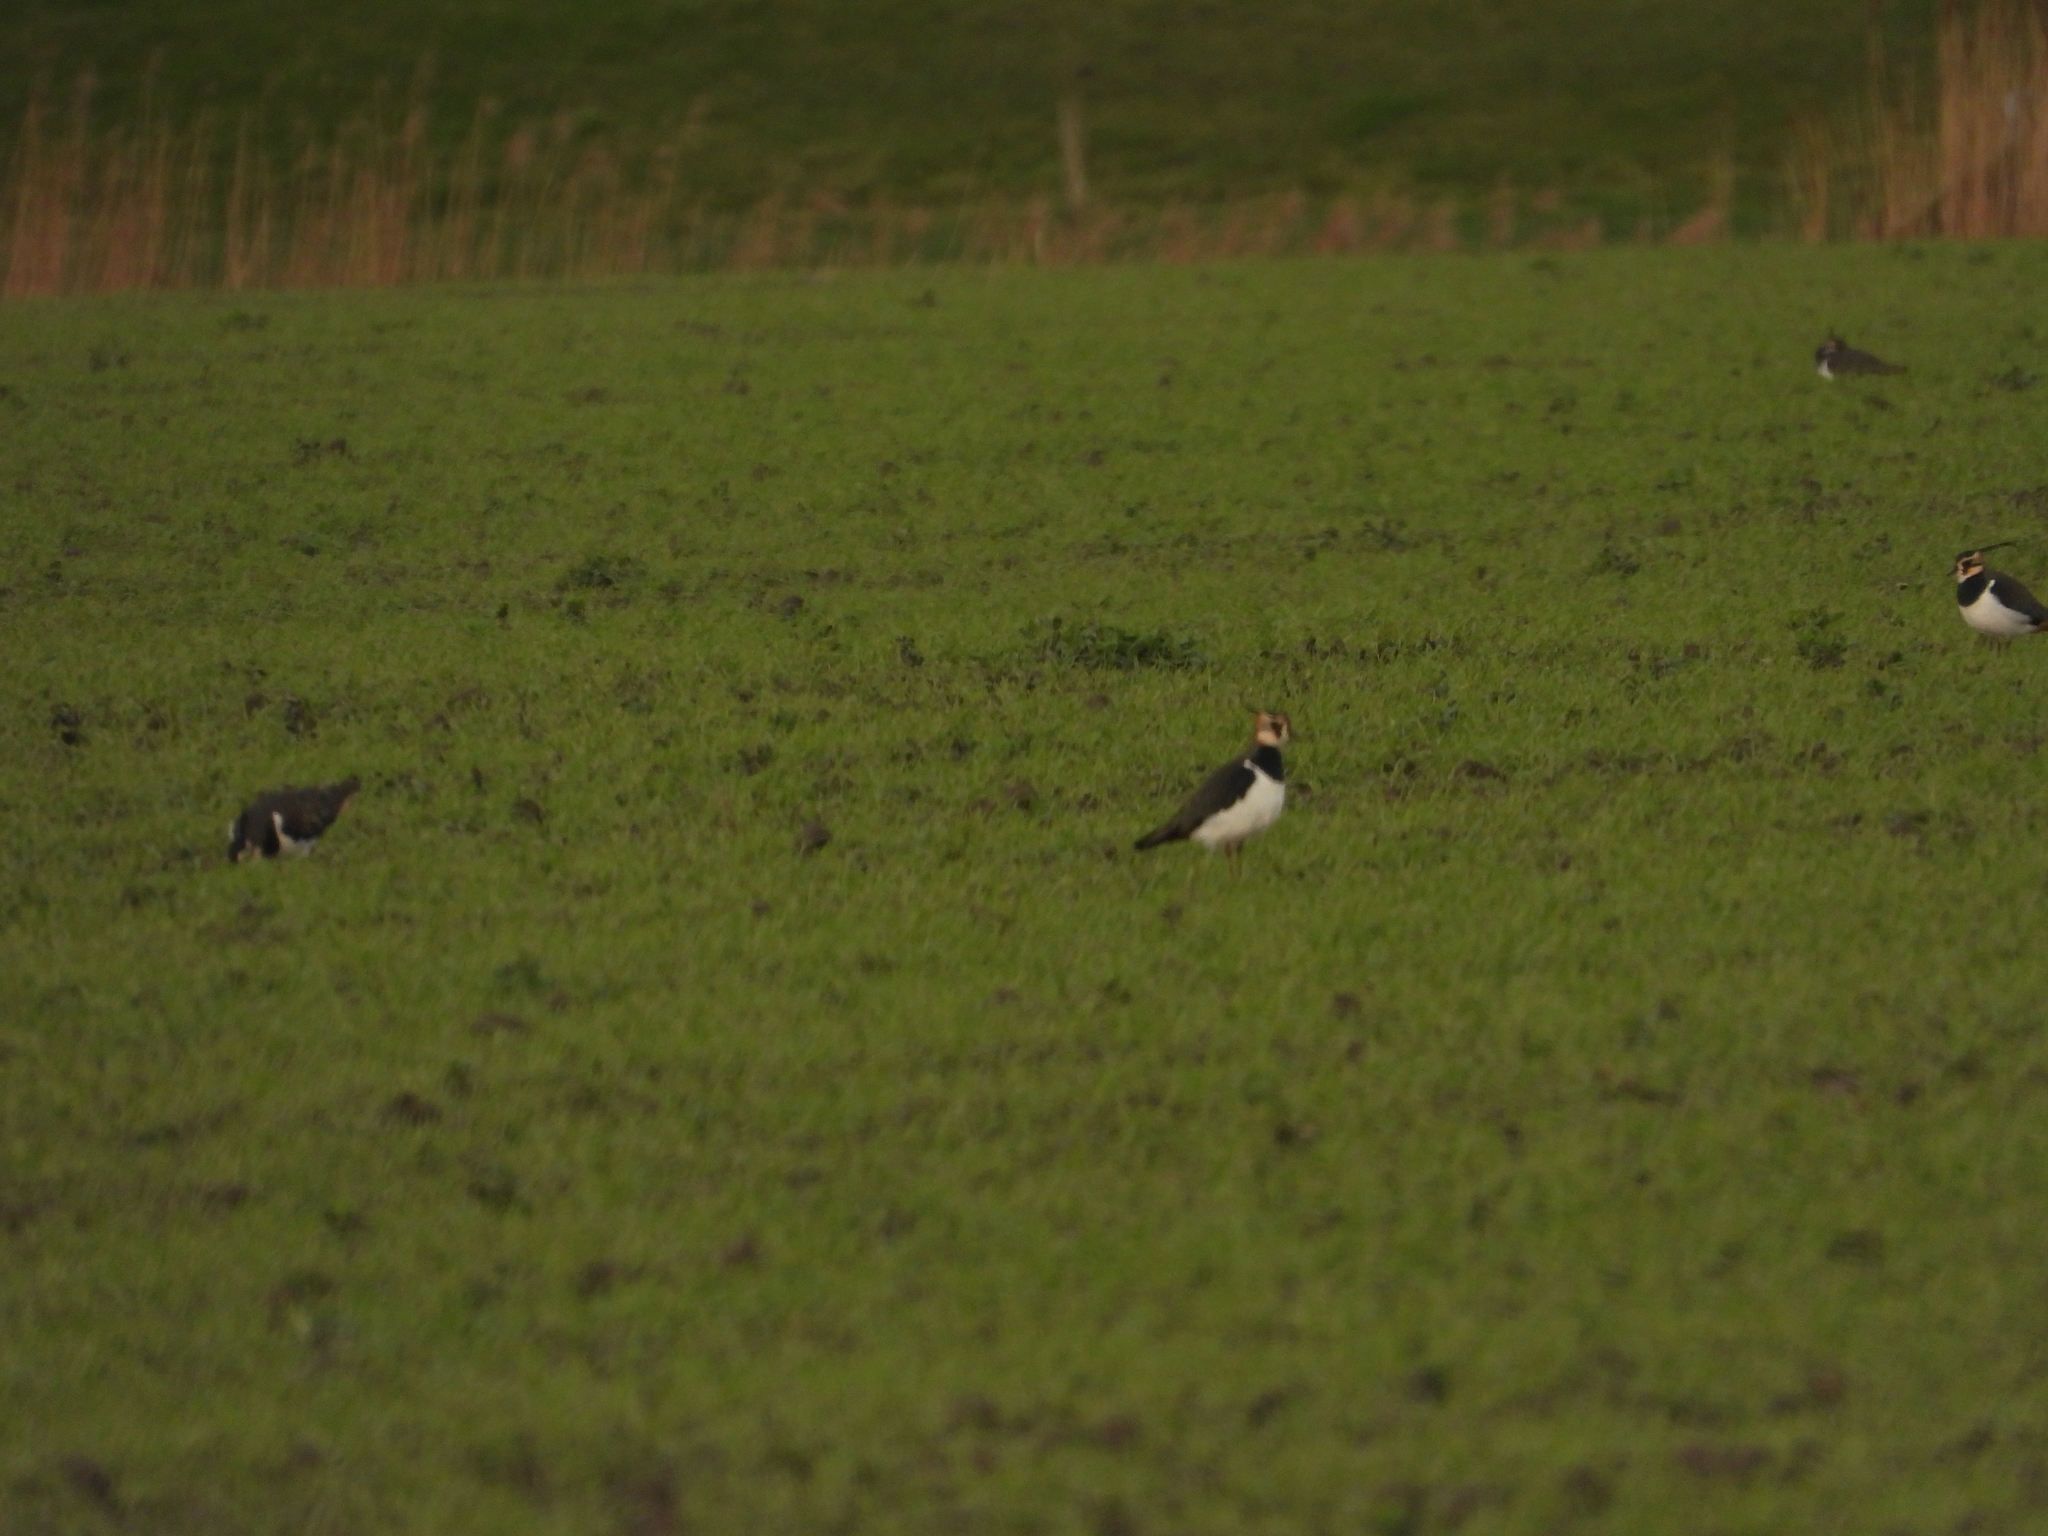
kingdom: Animalia
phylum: Chordata
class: Aves
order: Charadriiformes
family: Charadriidae
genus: Vanellus
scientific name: Vanellus vanellus
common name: Northern lapwing
